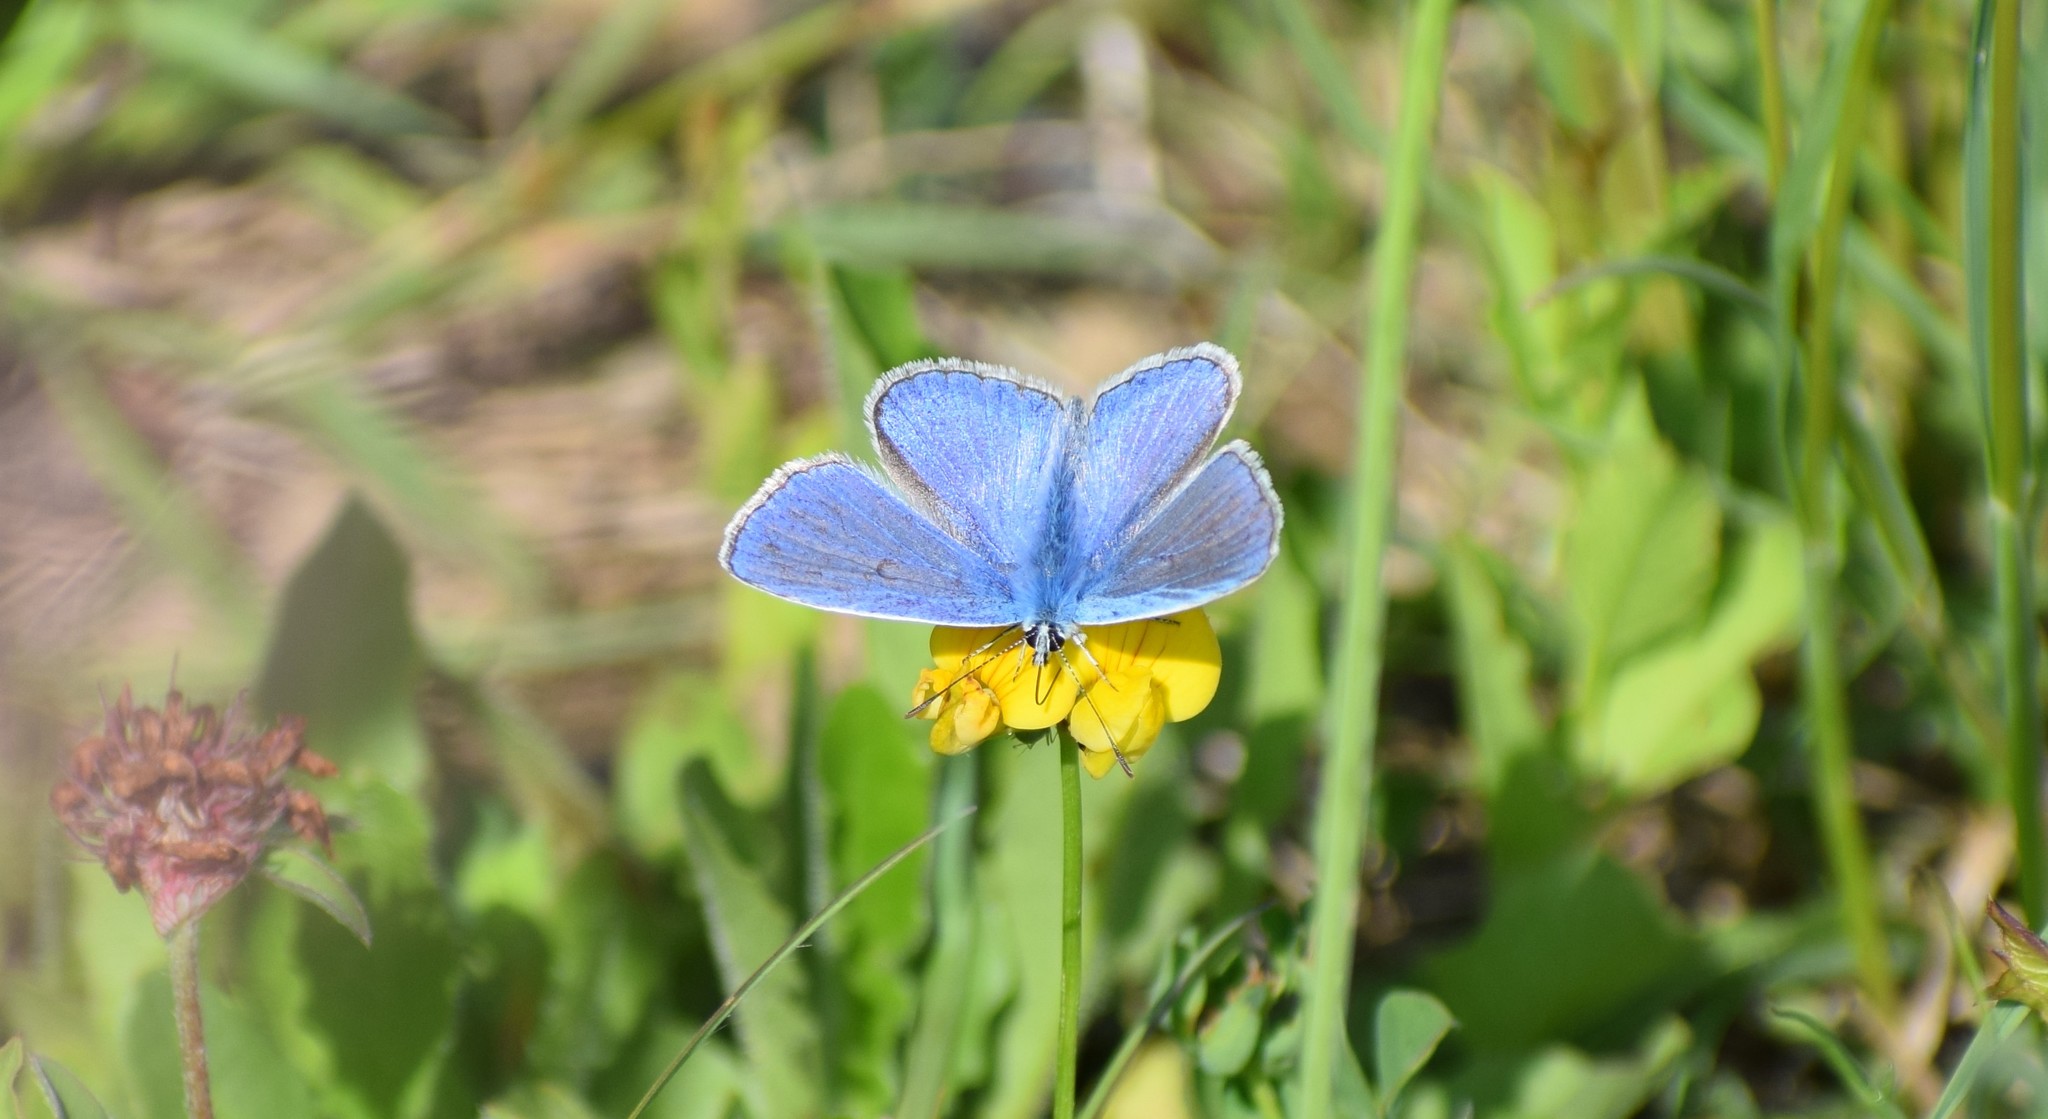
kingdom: Animalia
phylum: Arthropoda
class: Insecta
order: Lepidoptera
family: Lycaenidae
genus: Polyommatus
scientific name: Polyommatus icarus
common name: Common blue
